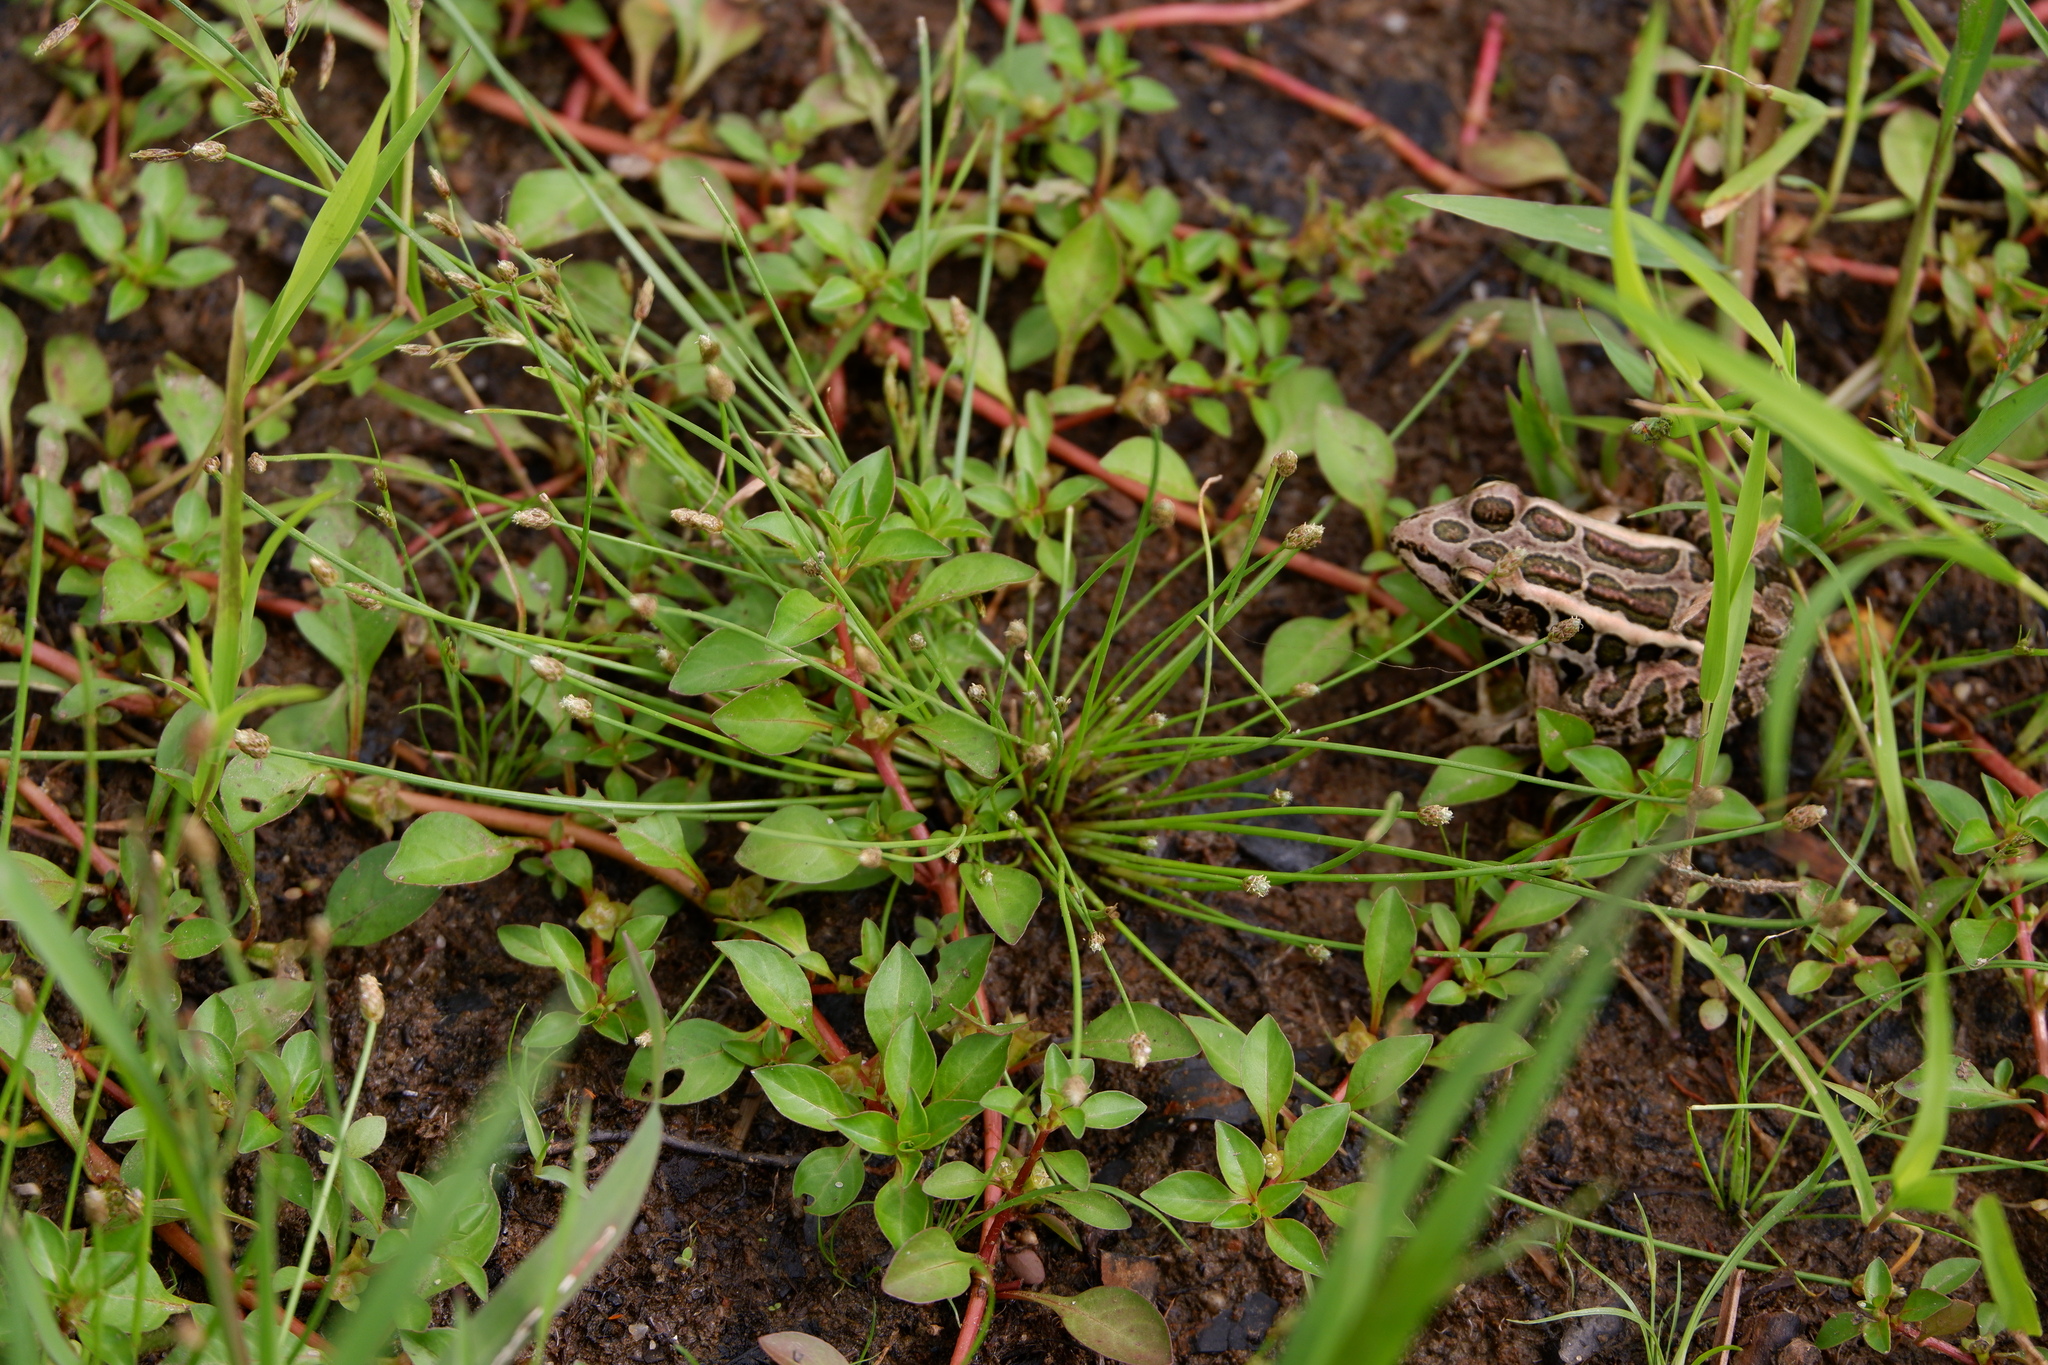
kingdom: Animalia
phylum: Chordata
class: Amphibia
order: Anura
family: Ranidae
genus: Lithobates
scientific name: Lithobates palustris
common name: Pickerel frog
